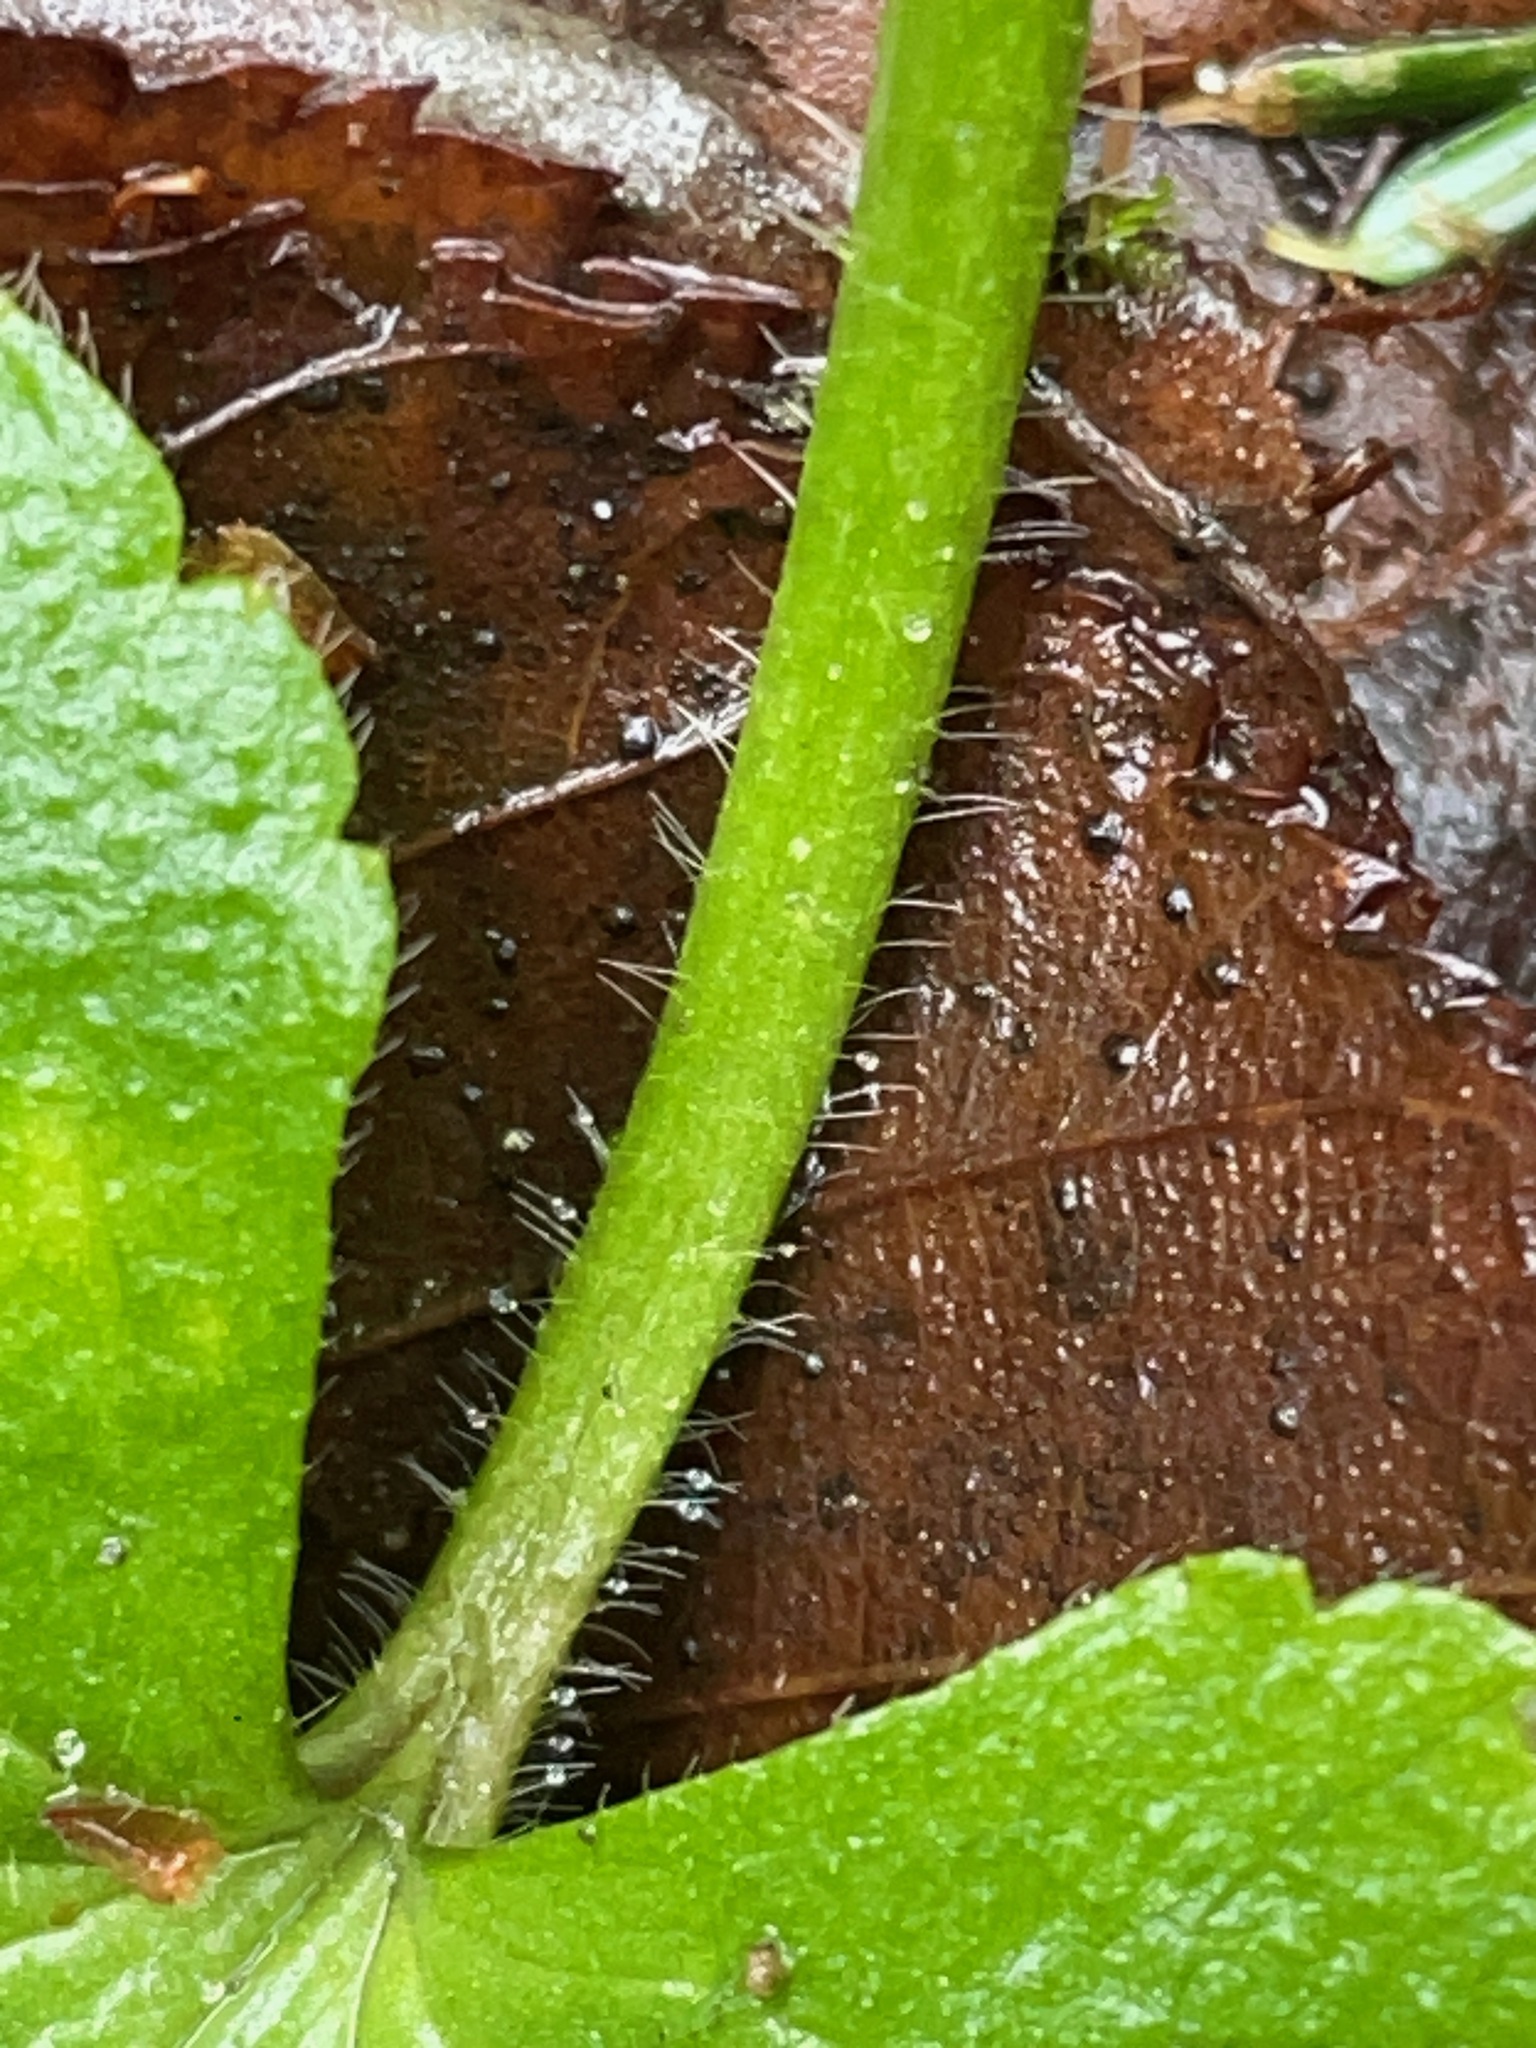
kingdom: Plantae
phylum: Tracheophyta
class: Magnoliopsida
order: Ranunculales
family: Ranunculaceae
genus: Ranunculus
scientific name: Ranunculus recurvatus
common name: Blisterwort
